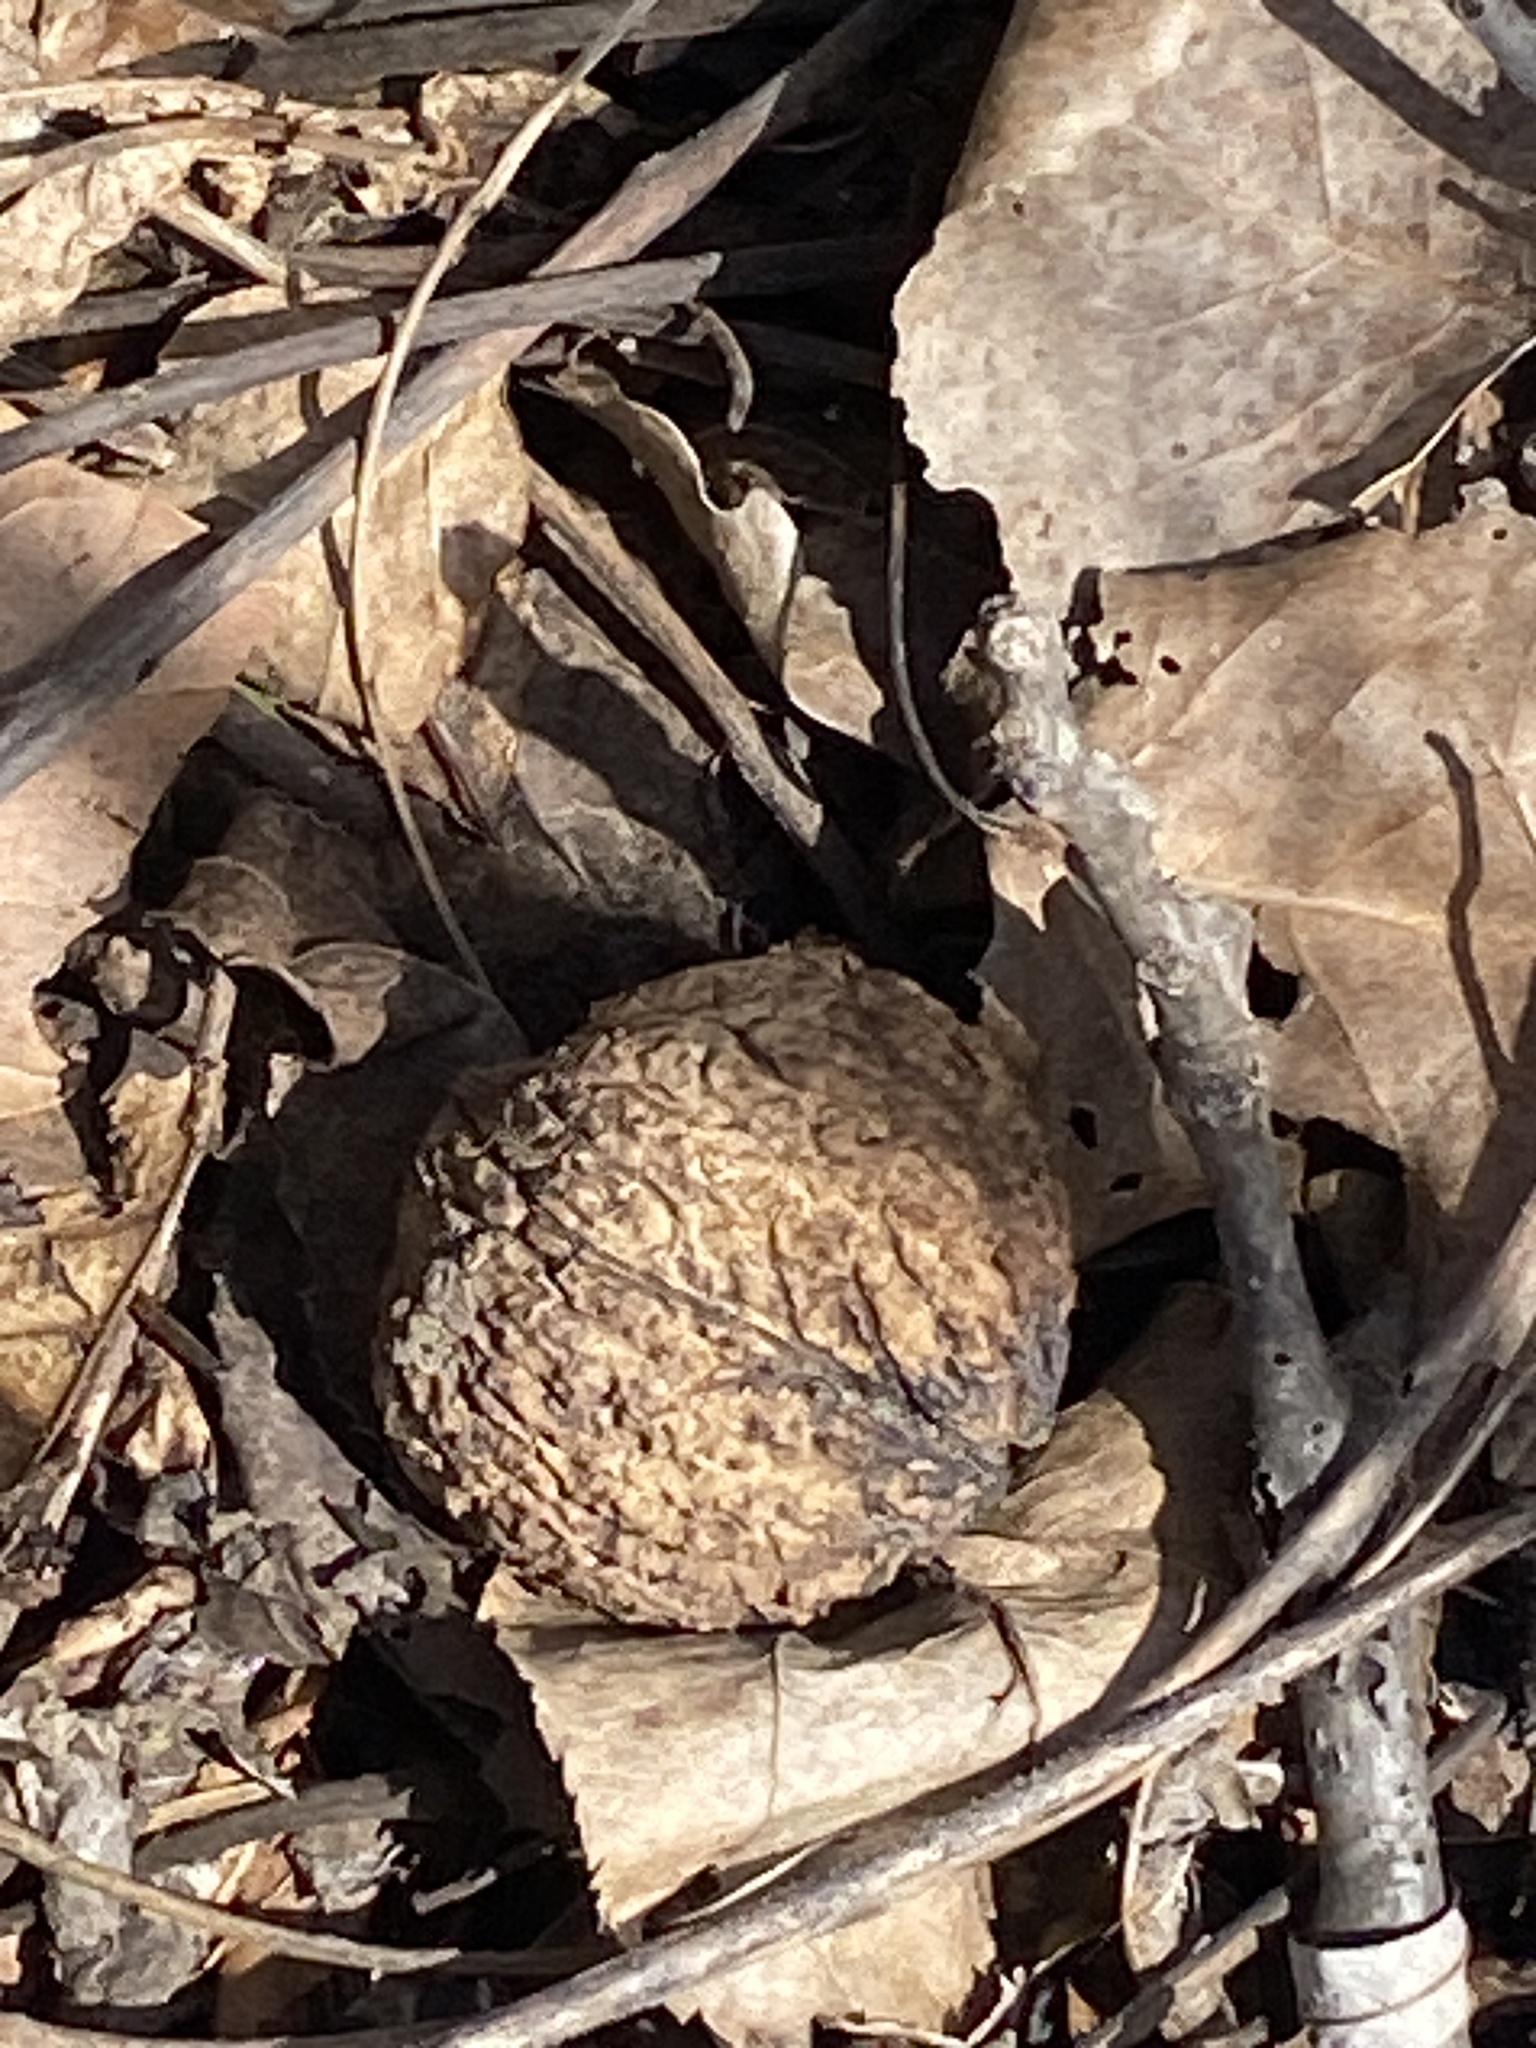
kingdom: Plantae
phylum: Tracheophyta
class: Magnoliopsida
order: Fagales
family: Juglandaceae
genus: Juglans
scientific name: Juglans nigra
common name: Black walnut
